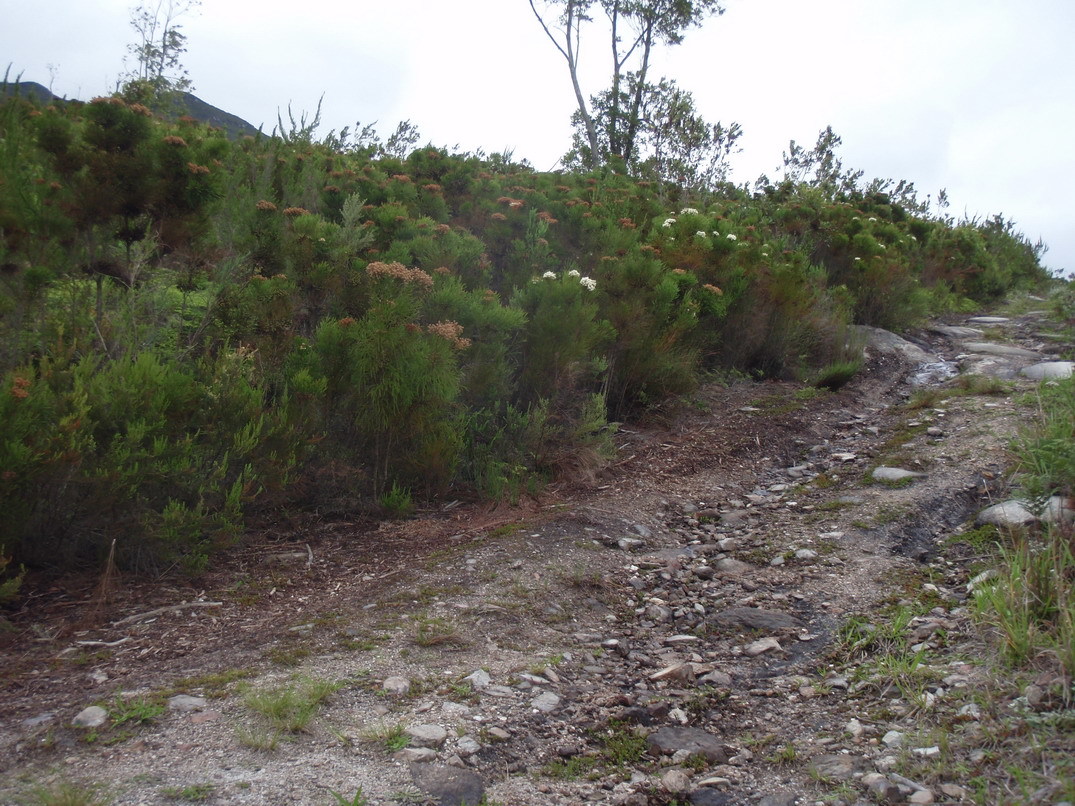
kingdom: Plantae
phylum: Tracheophyta
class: Magnoliopsida
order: Bruniales
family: Bruniaceae
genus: Berzelia
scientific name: Berzelia intermedia
